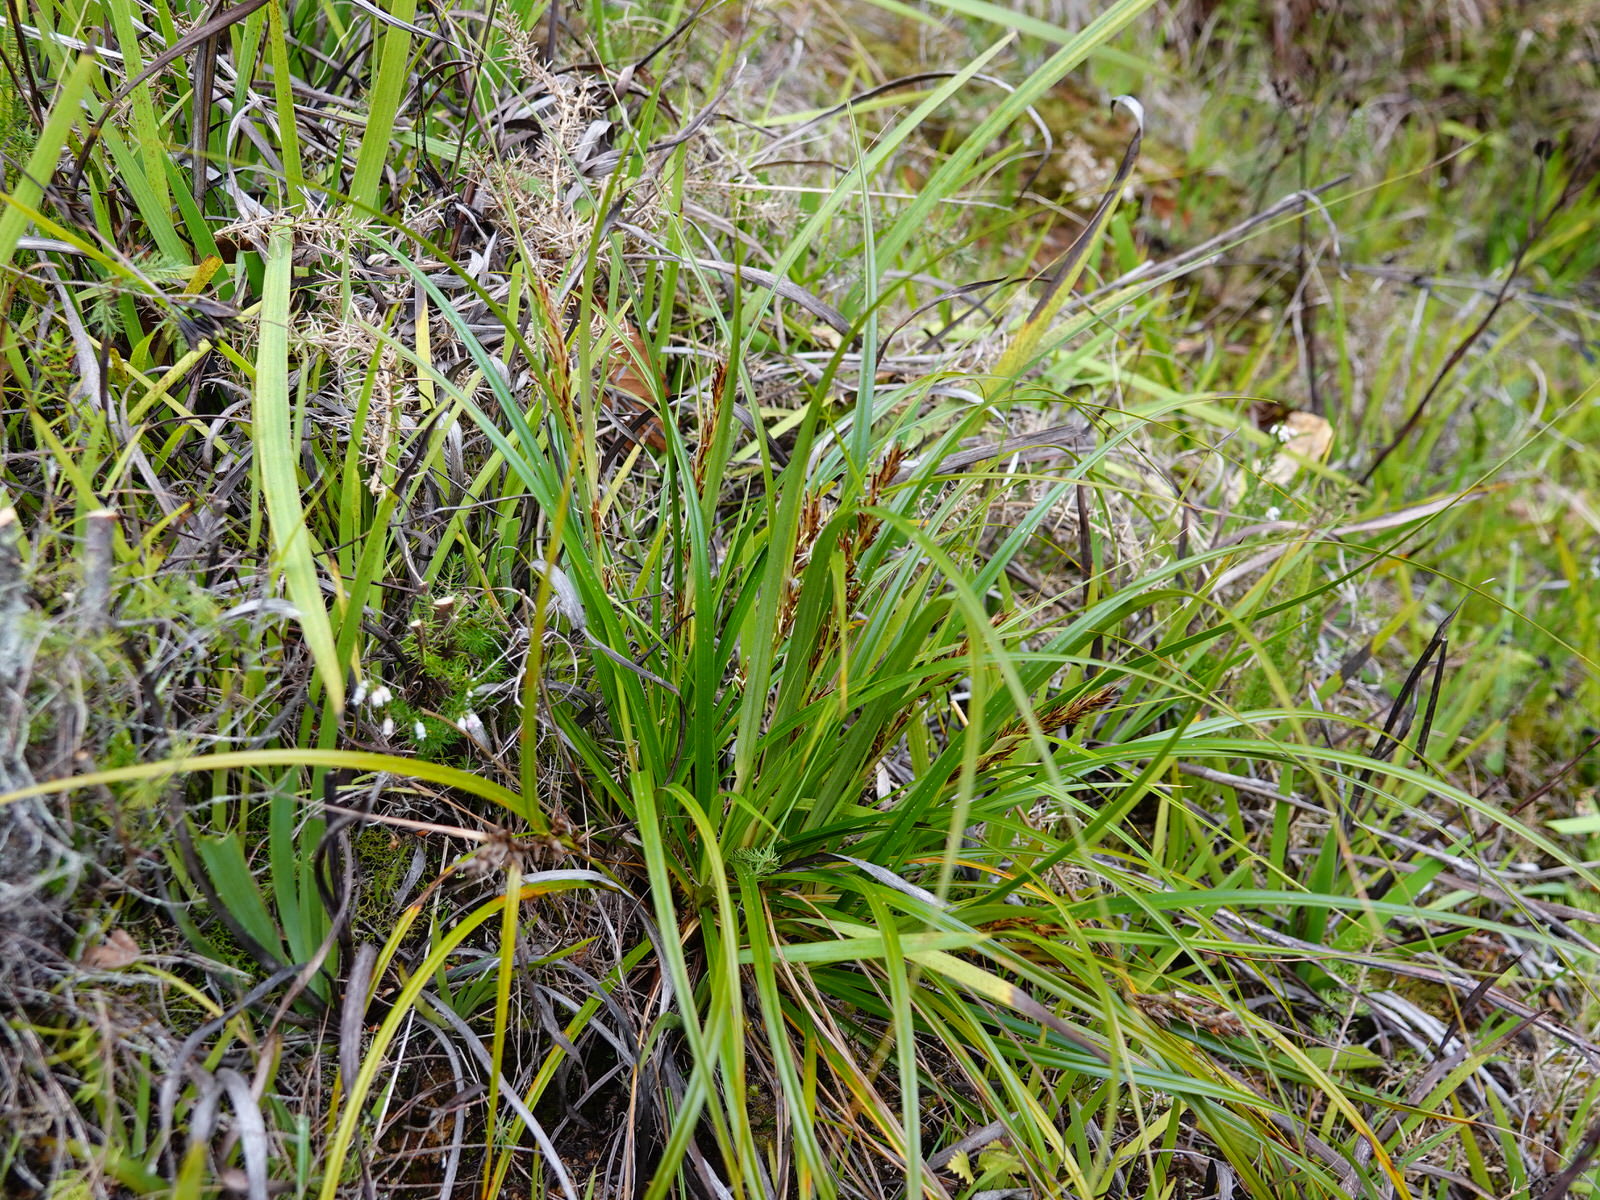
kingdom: Plantae
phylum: Tracheophyta
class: Liliopsida
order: Poales
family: Cyperaceae
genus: Morelotia
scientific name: Morelotia affinis
